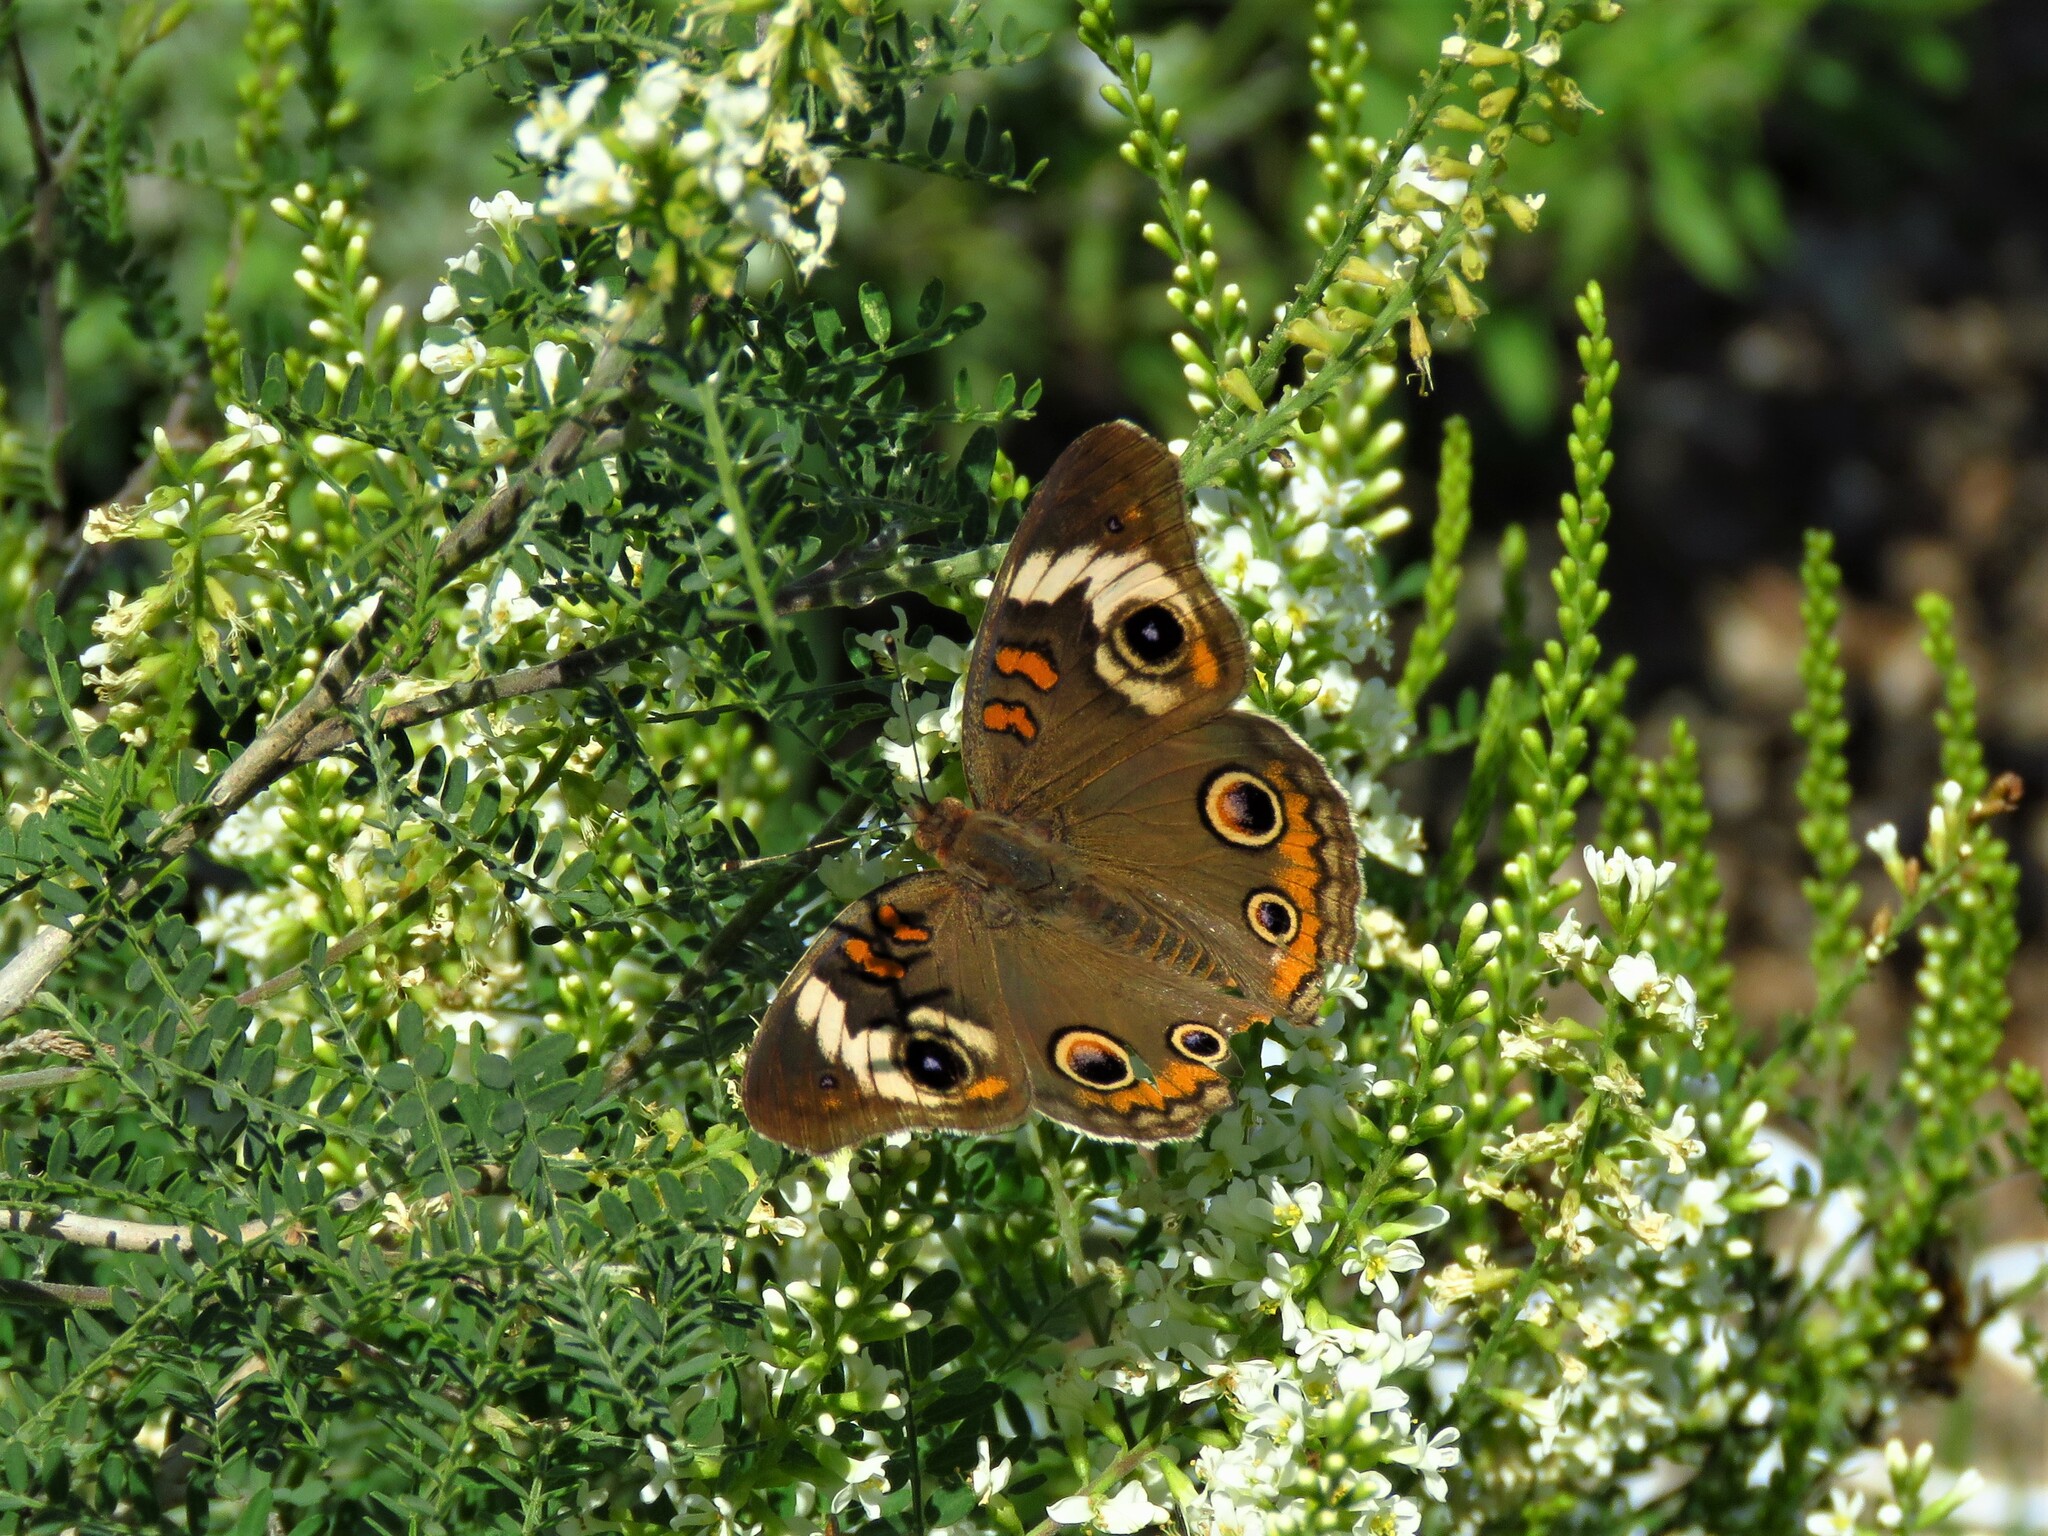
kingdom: Animalia
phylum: Arthropoda
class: Insecta
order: Lepidoptera
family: Nymphalidae
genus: Junonia
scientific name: Junonia coenia
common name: Common buckeye
